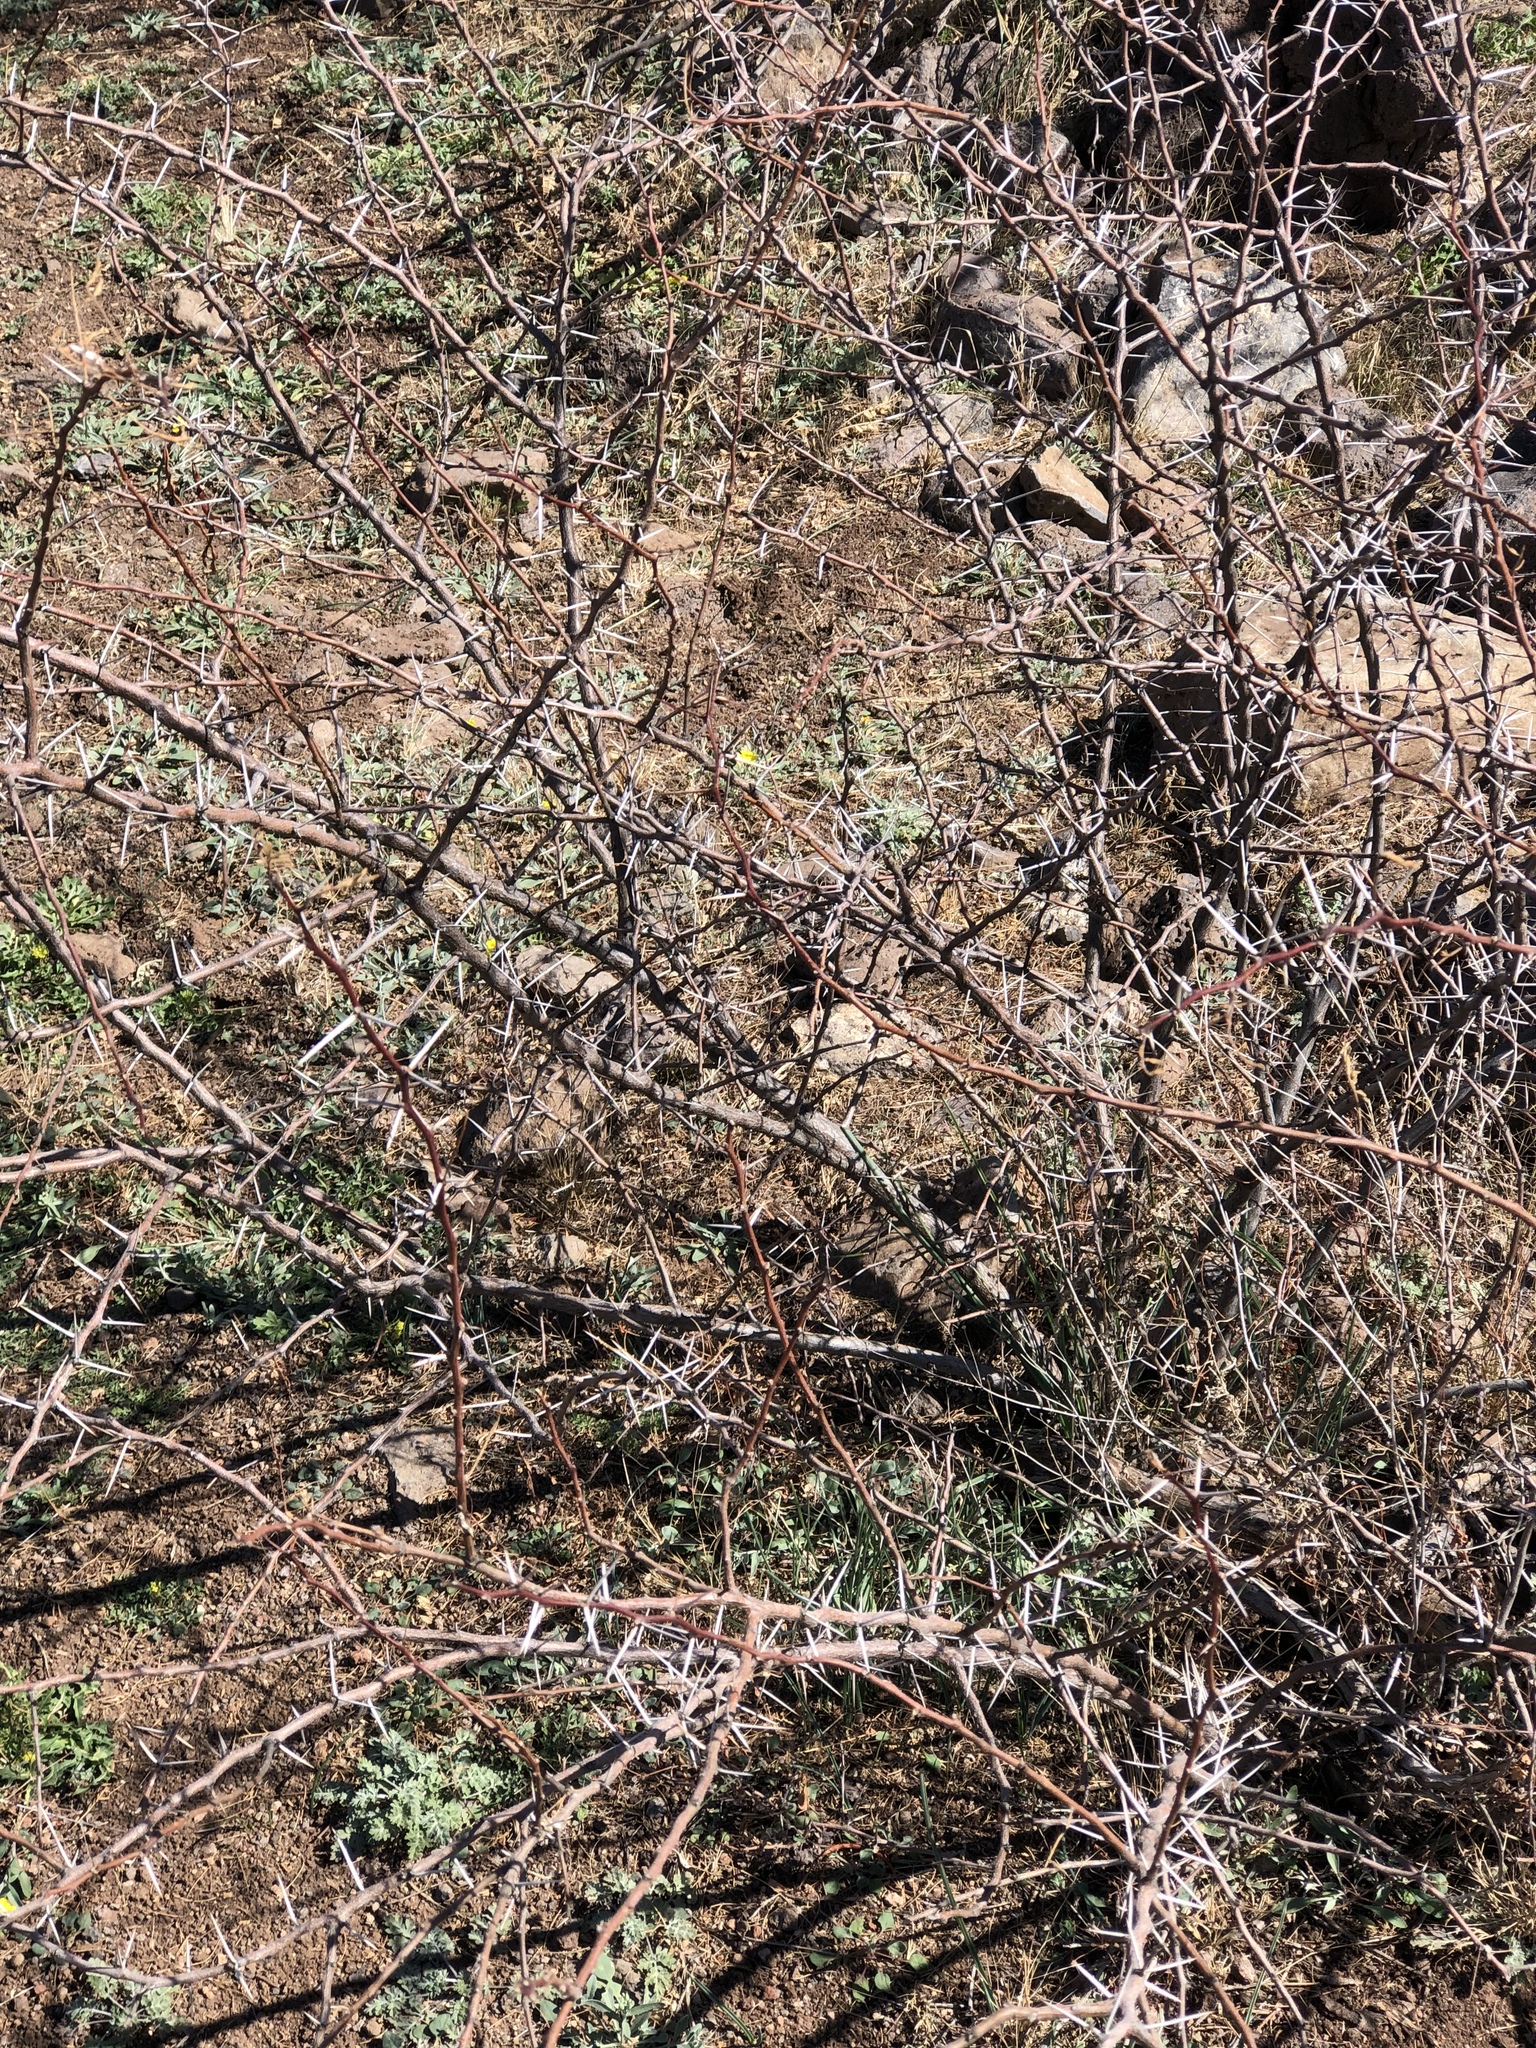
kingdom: Plantae
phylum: Tracheophyta
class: Magnoliopsida
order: Fabales
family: Fabaceae
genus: Vachellia
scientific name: Vachellia constricta
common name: Mescat acacia
